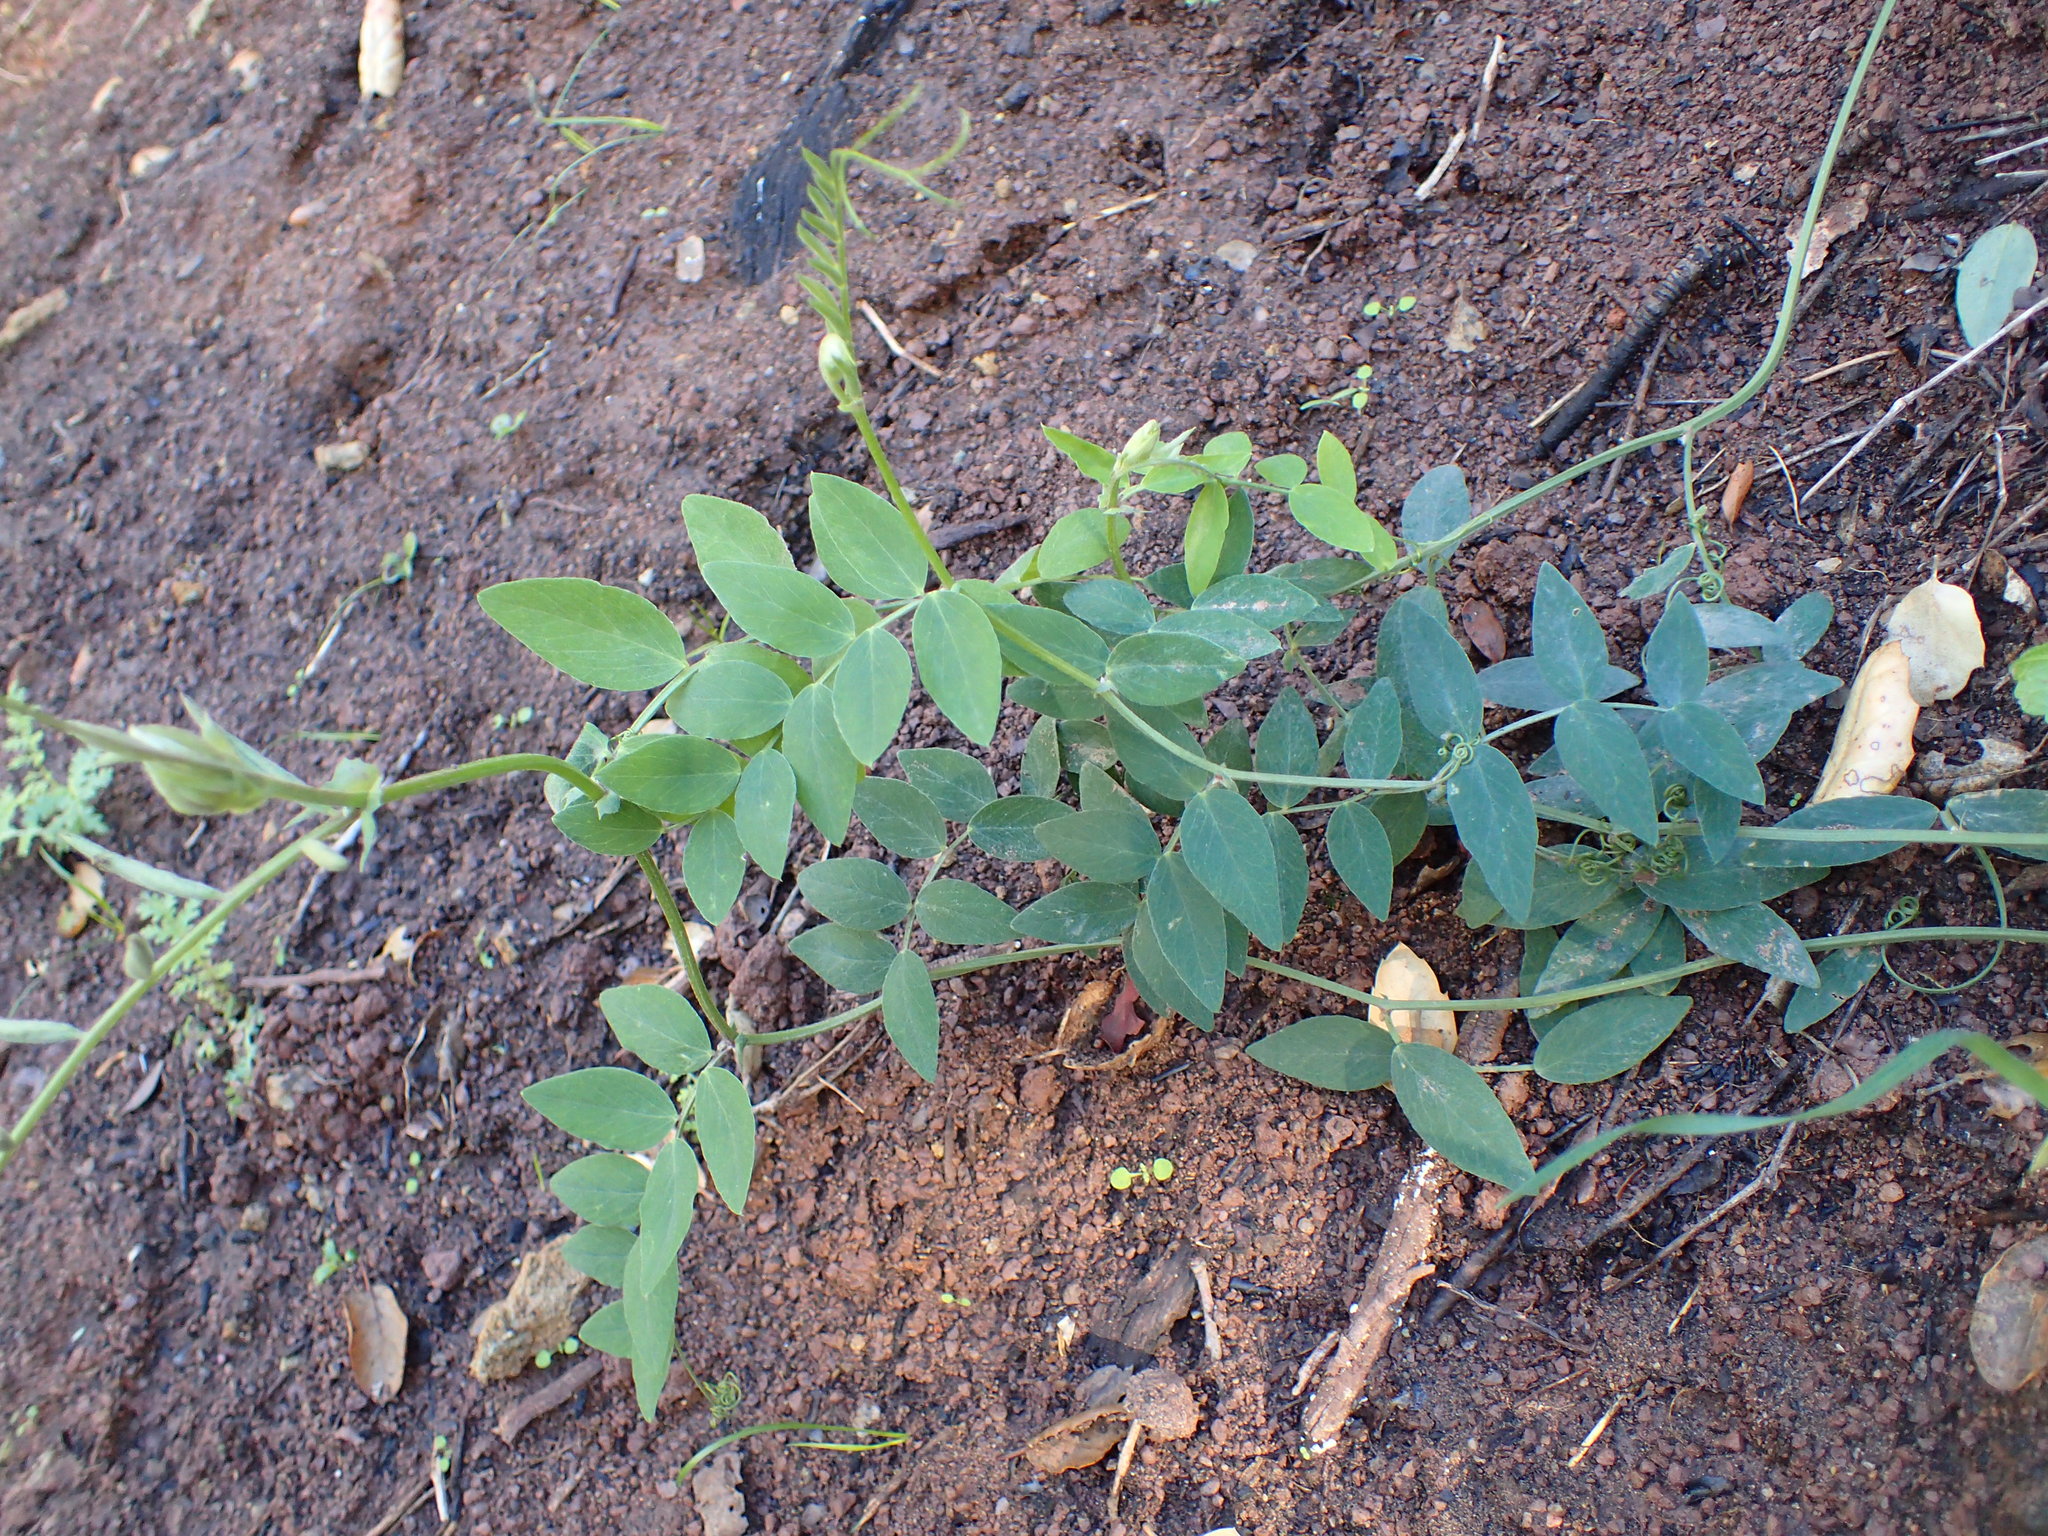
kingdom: Plantae
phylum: Tracheophyta
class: Magnoliopsida
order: Fabales
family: Fabaceae
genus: Lathyrus
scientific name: Lathyrus vestitus
